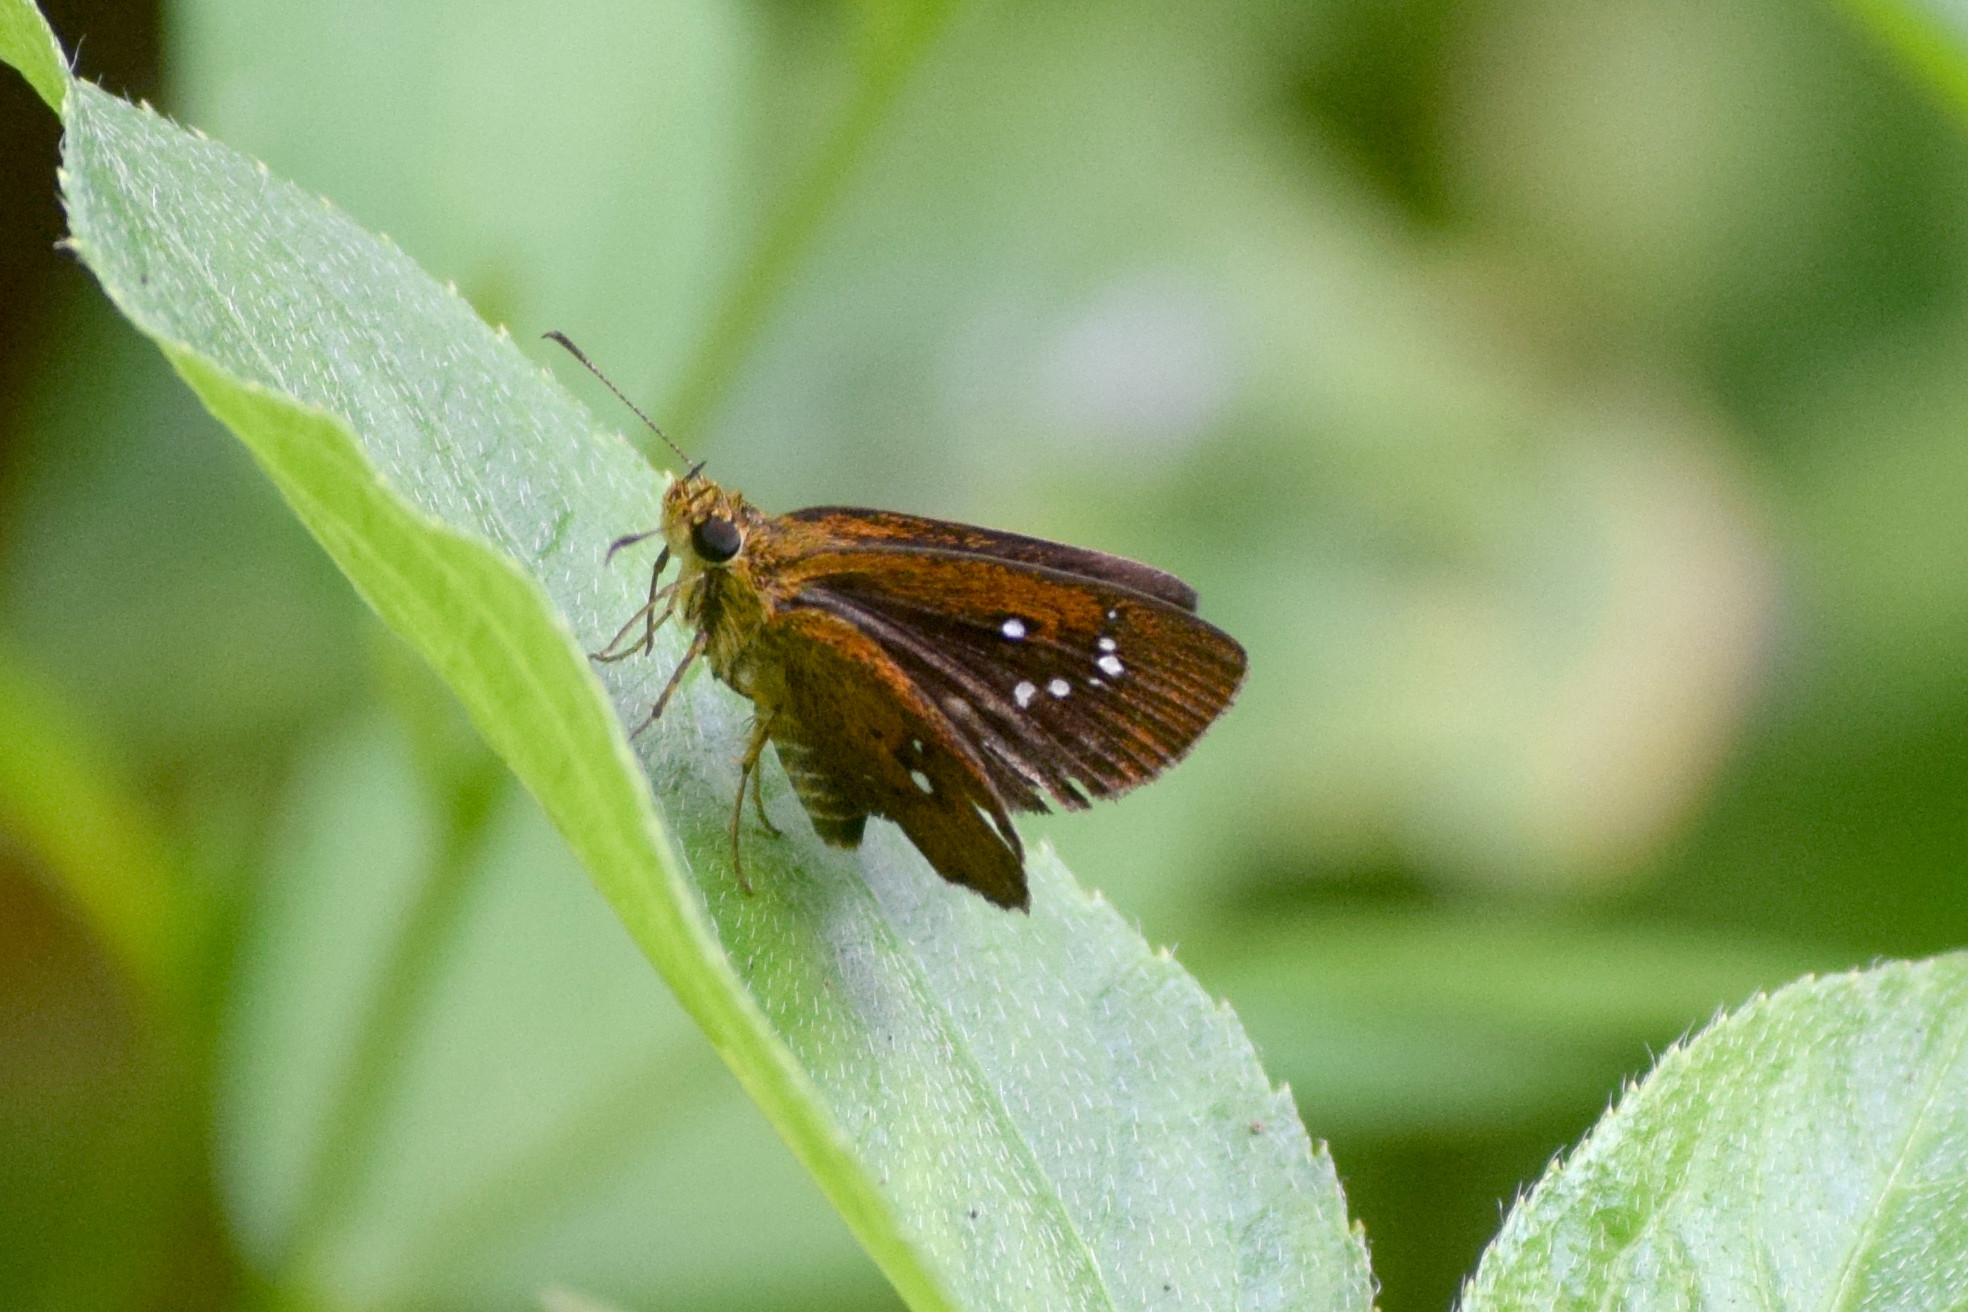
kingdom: Animalia
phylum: Arthropoda
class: Insecta
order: Lepidoptera
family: Hesperiidae
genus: Iambrix
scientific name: Iambrix salsala
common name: Chestnut bob
